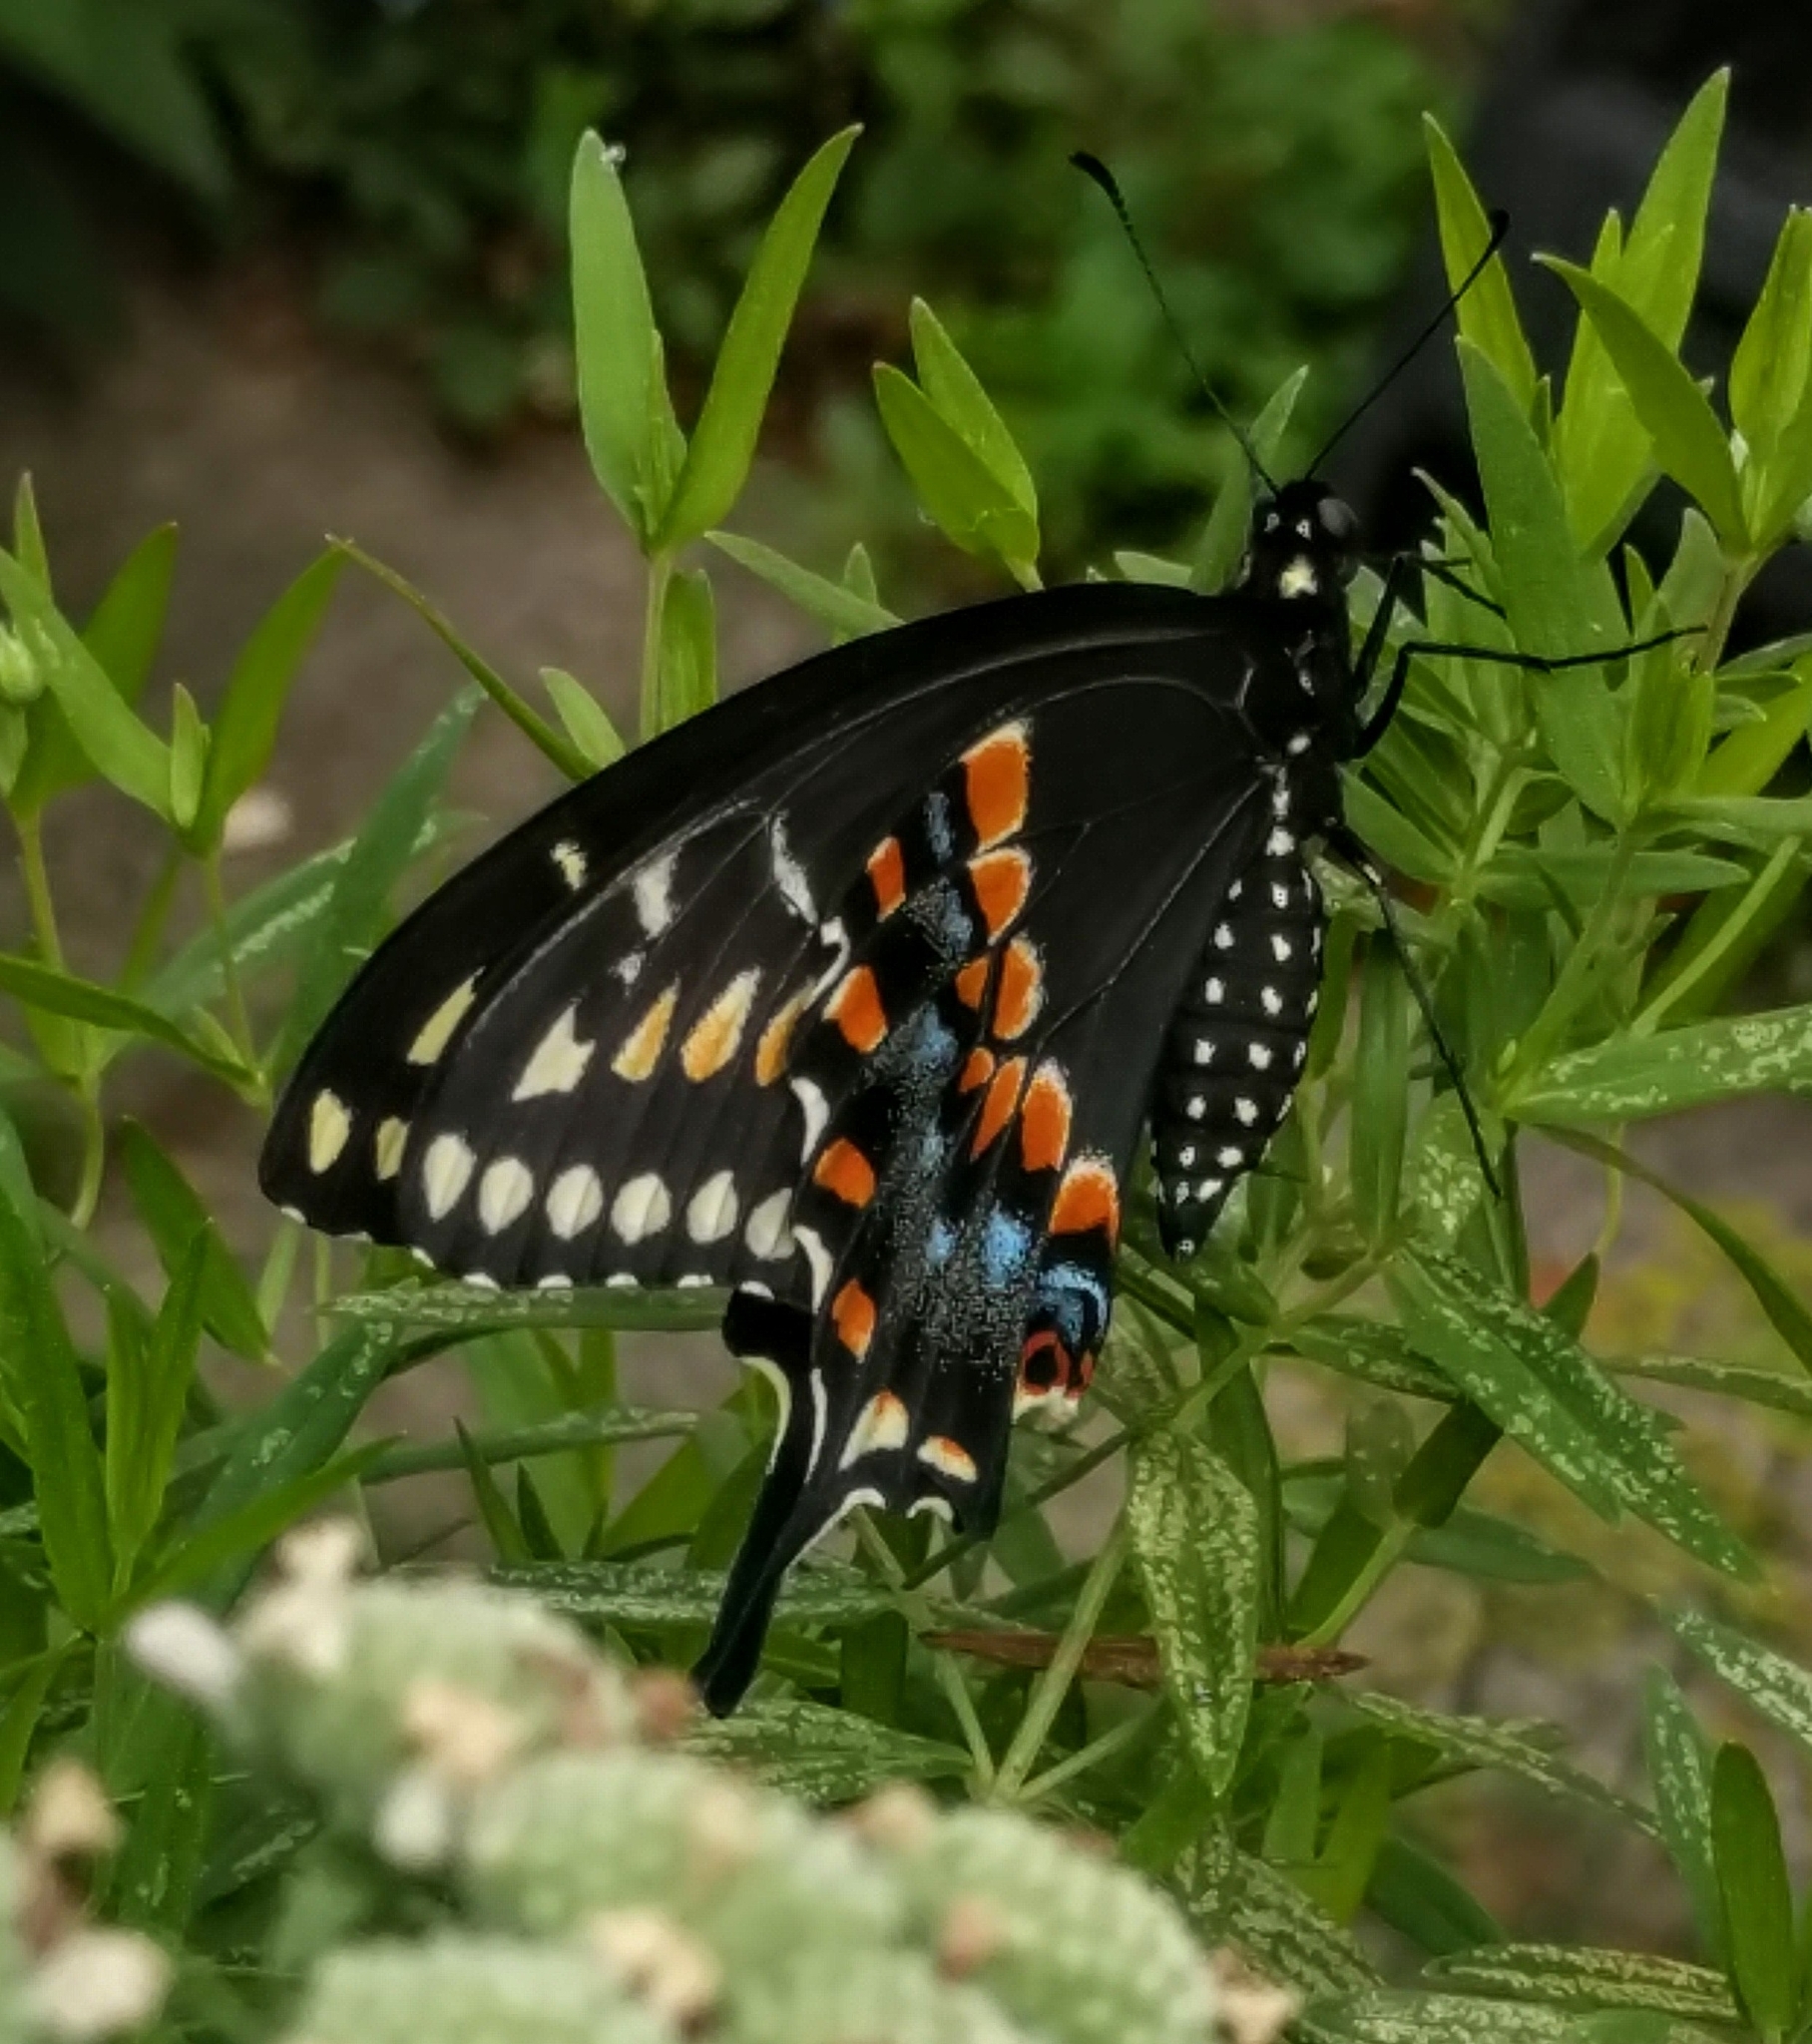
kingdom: Animalia
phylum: Arthropoda
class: Insecta
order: Lepidoptera
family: Papilionidae
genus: Papilio
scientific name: Papilio polyxenes
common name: Black swallowtail
